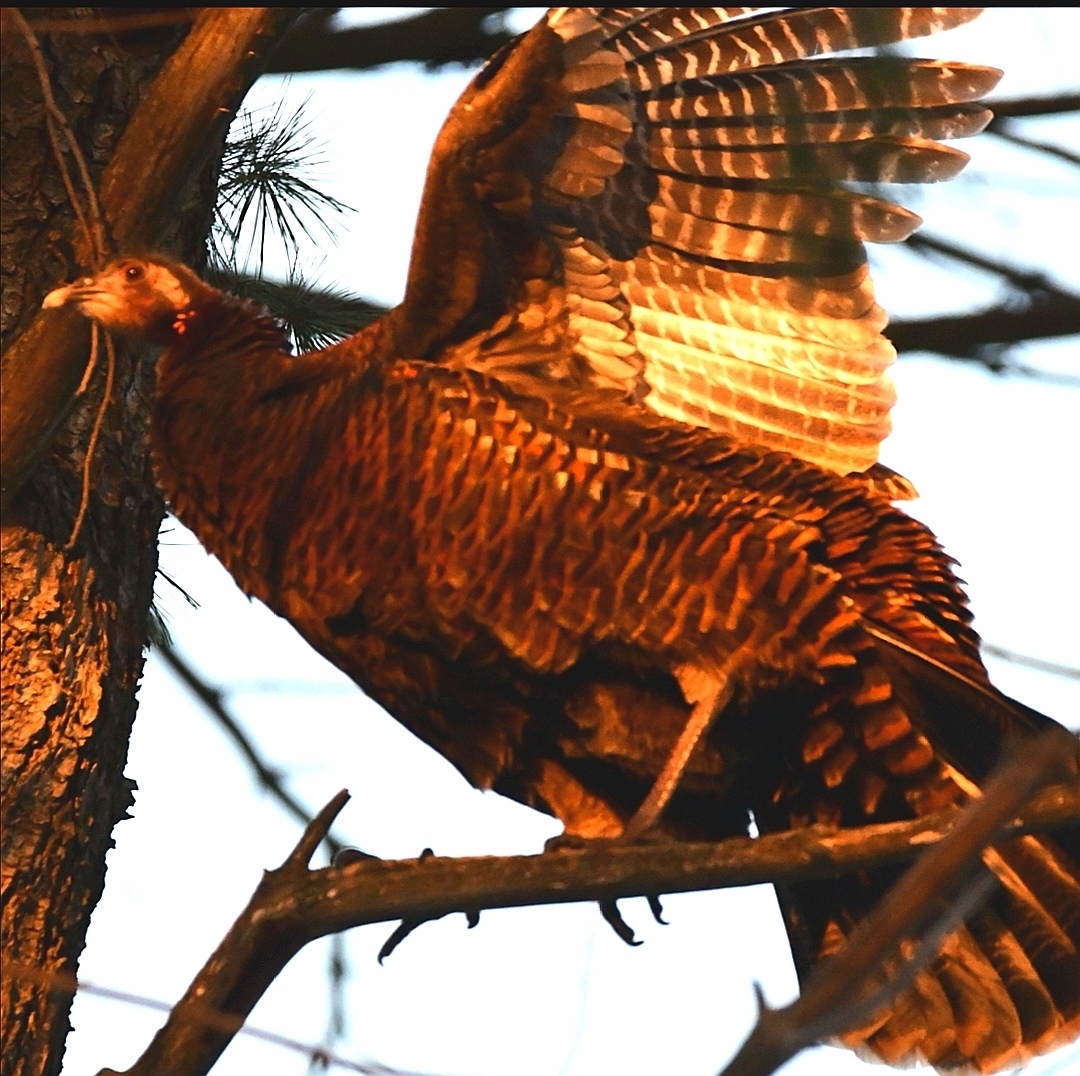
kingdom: Animalia
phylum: Chordata
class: Aves
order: Galliformes
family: Phasianidae
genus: Meleagris
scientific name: Meleagris gallopavo
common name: Wild turkey
